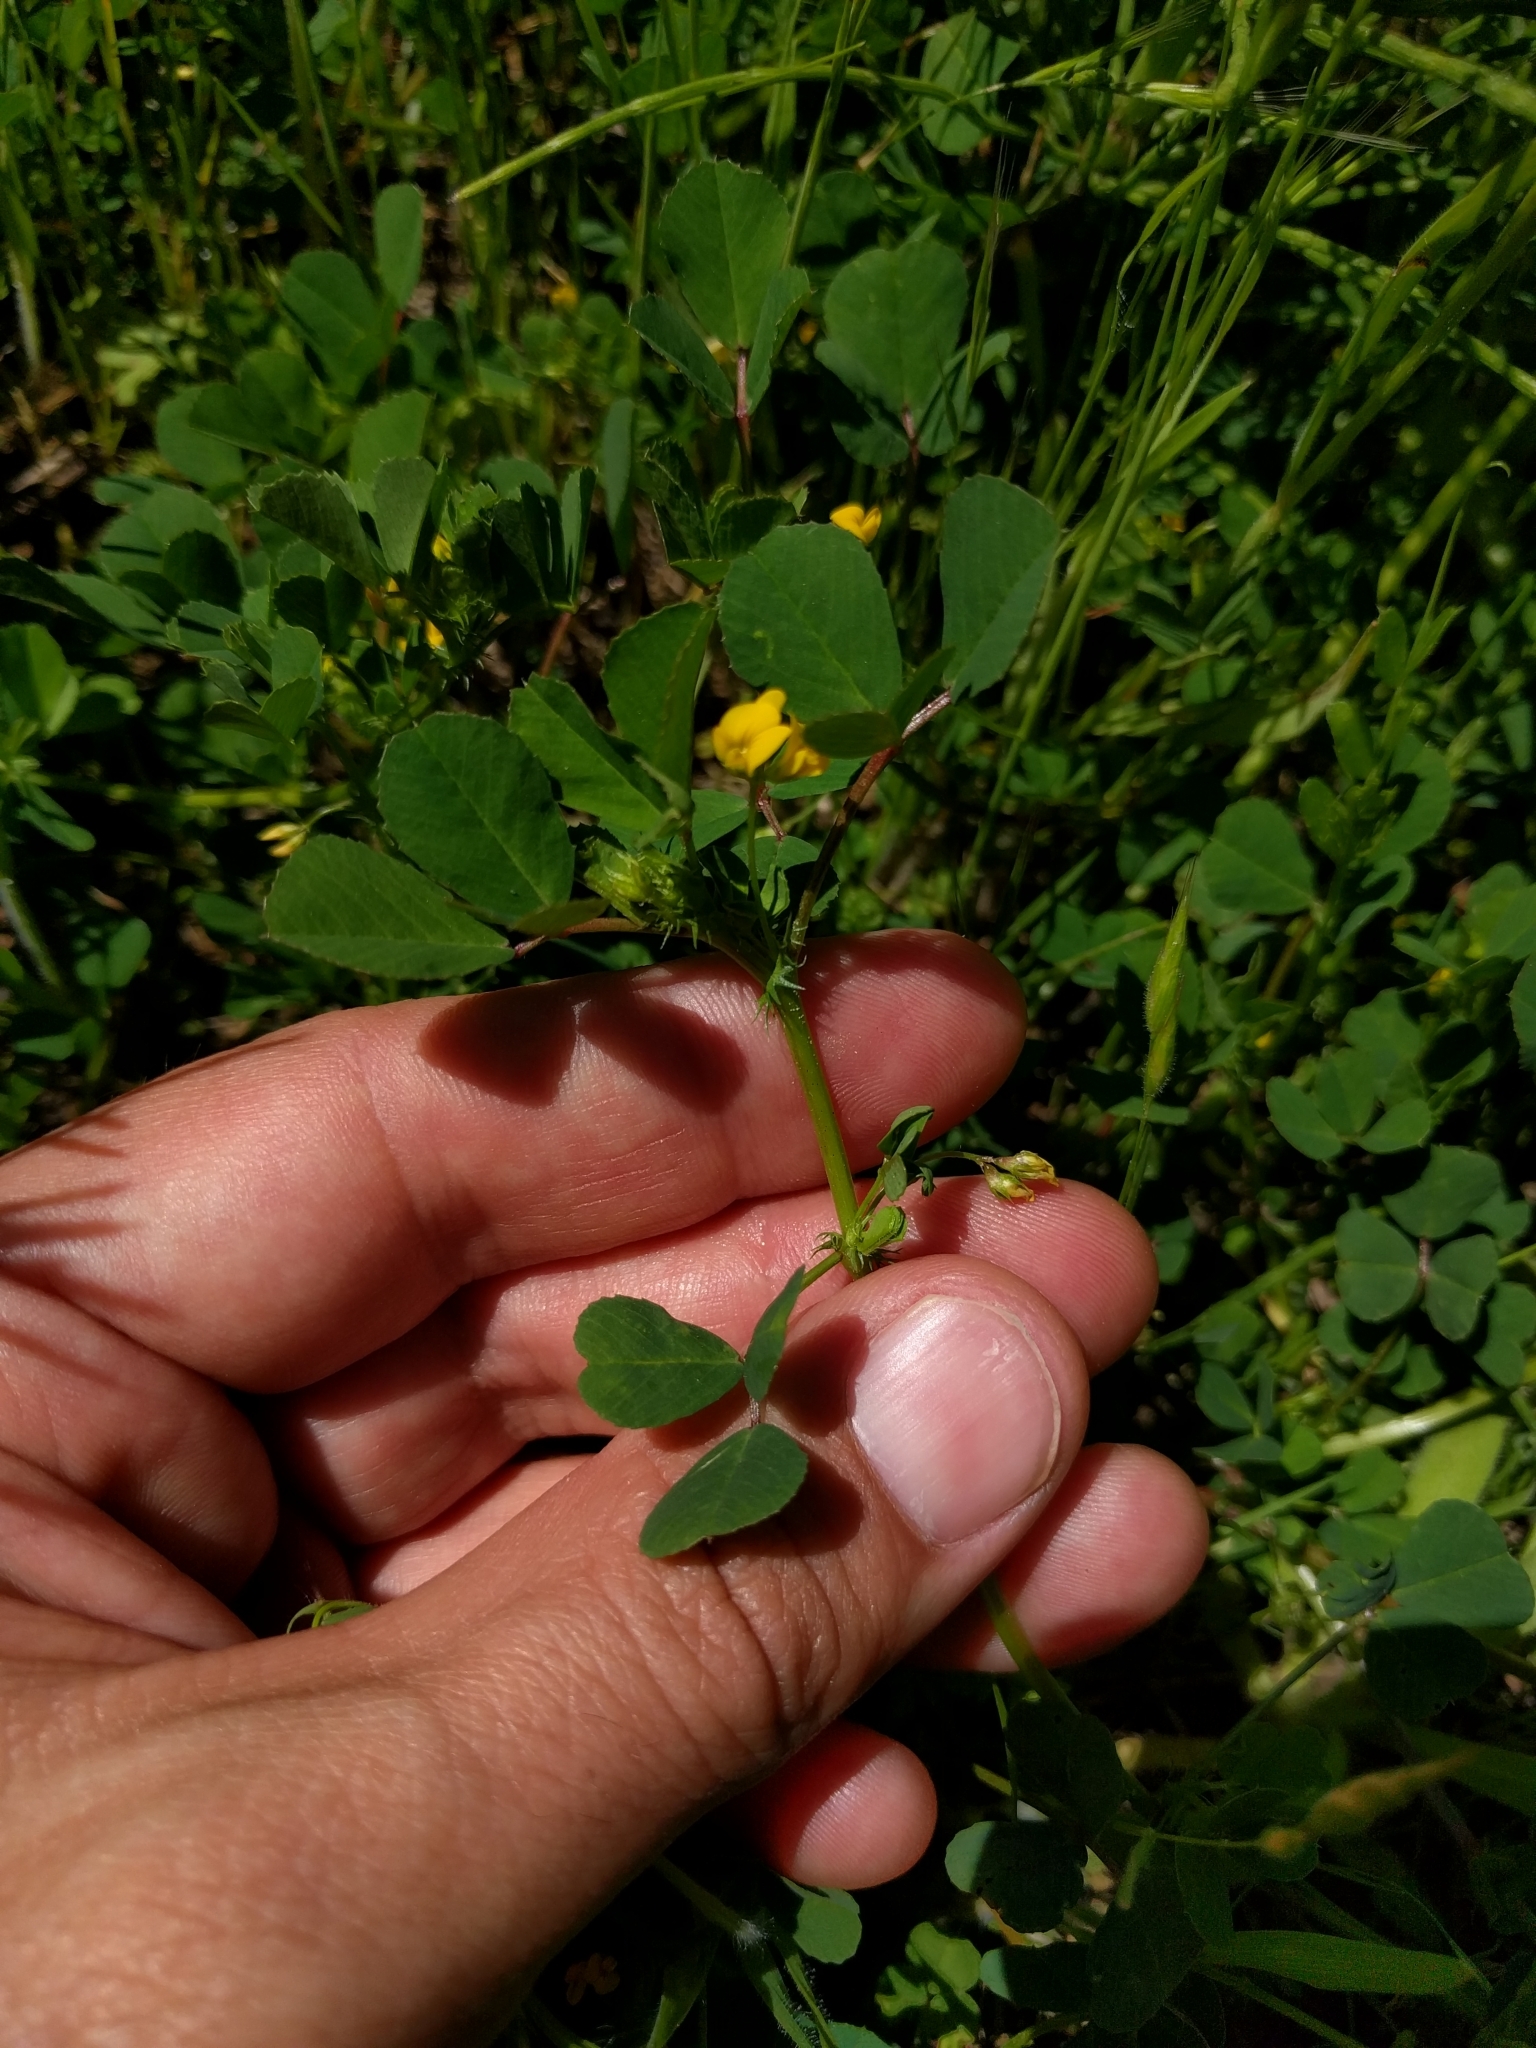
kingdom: Plantae
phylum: Tracheophyta
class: Magnoliopsida
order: Fabales
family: Fabaceae
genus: Medicago
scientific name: Medicago polymorpha
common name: Burclover
